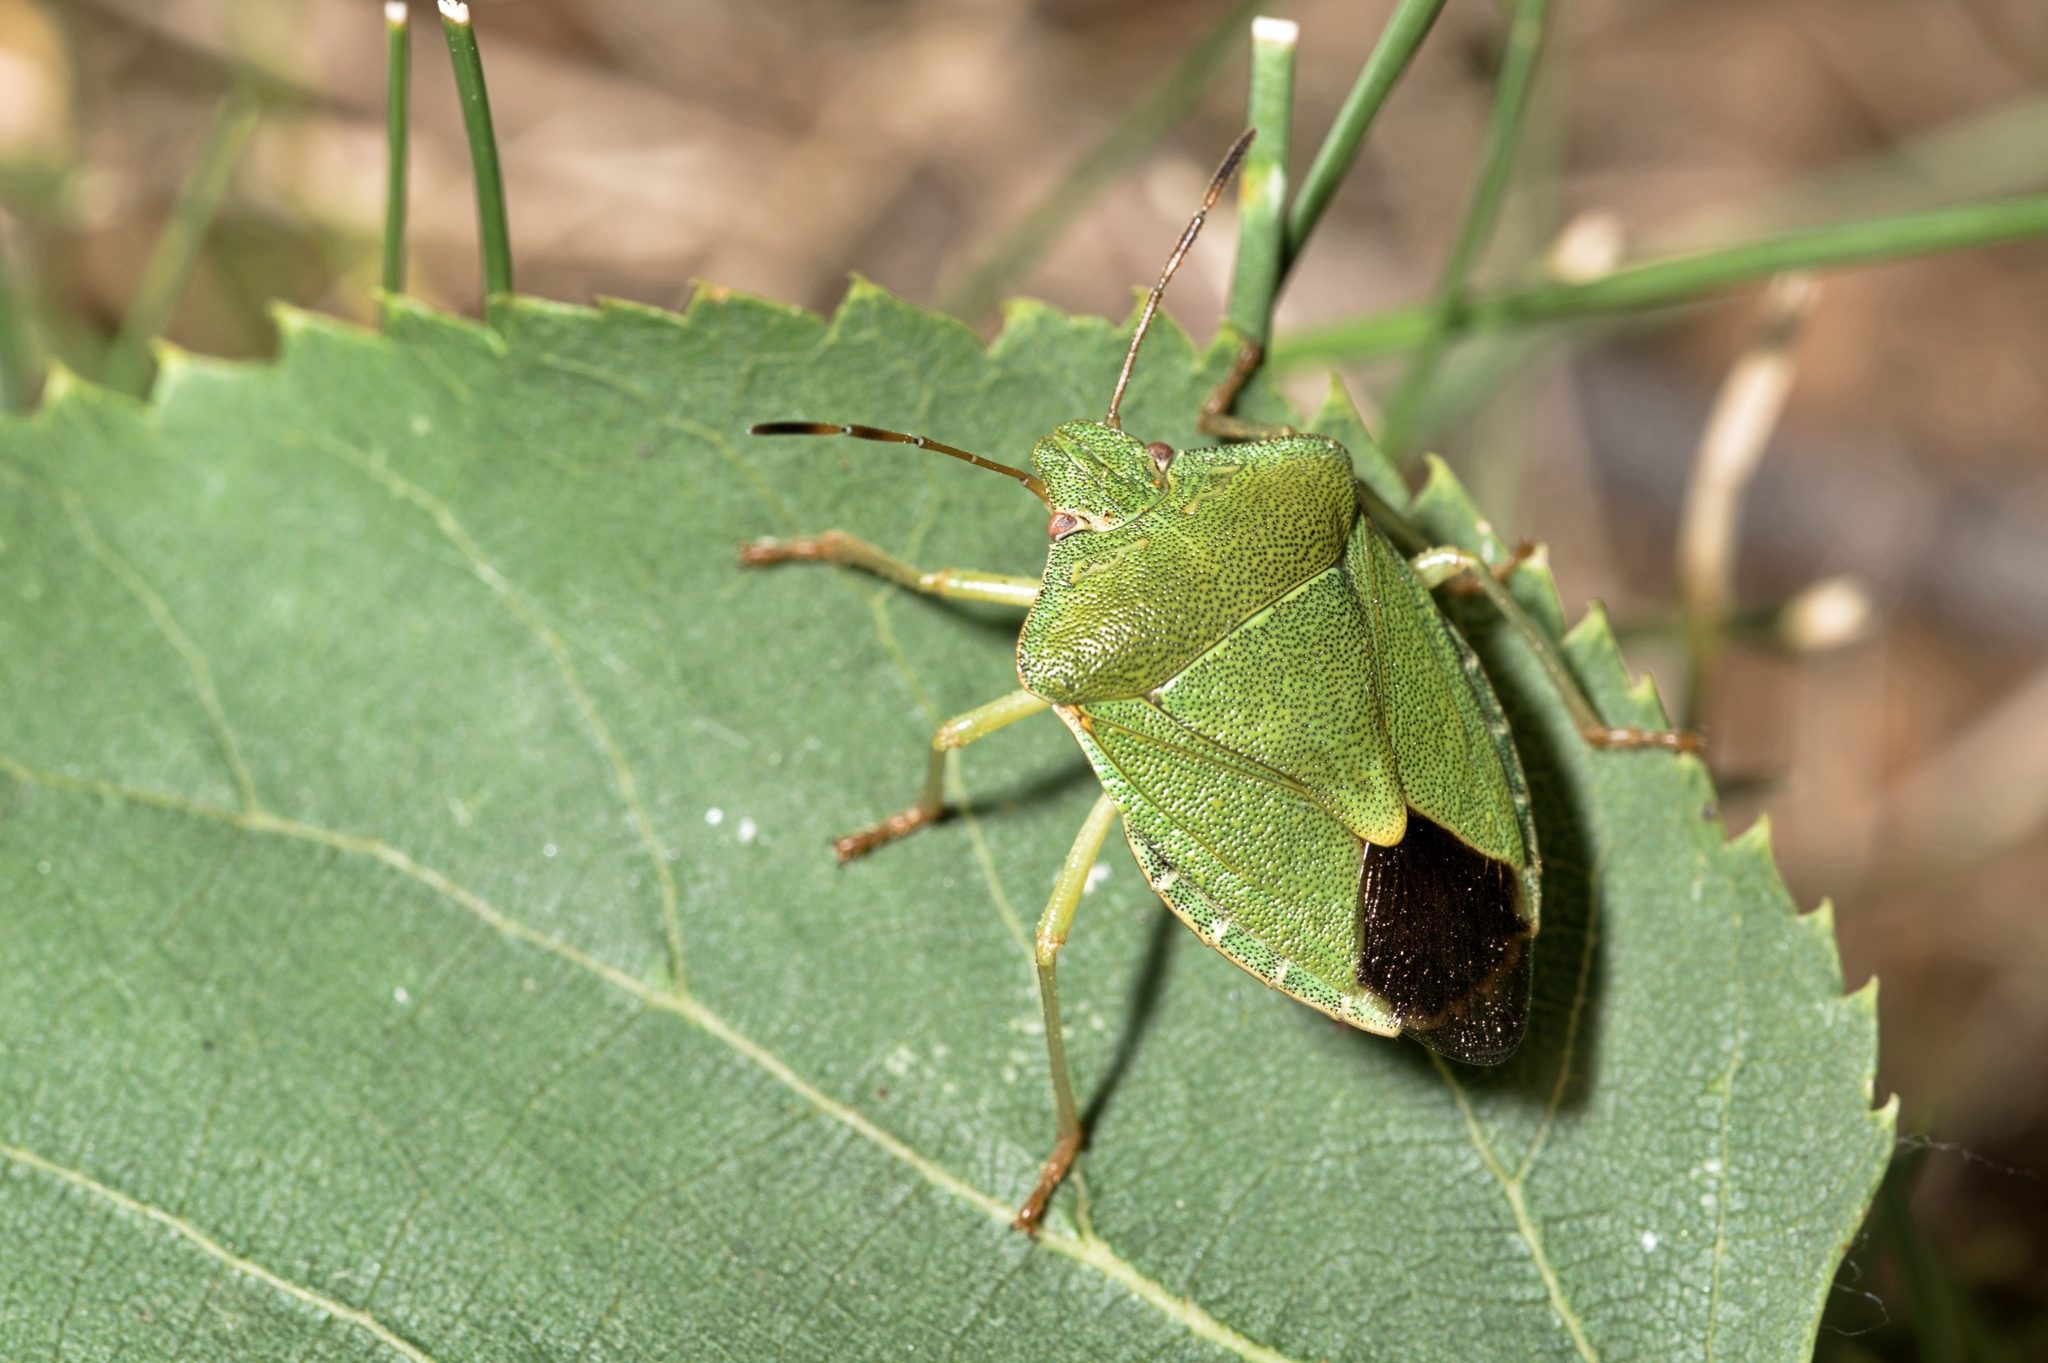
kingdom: Animalia
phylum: Arthropoda
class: Insecta
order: Hemiptera
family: Pentatomidae
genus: Palomena
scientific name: Palomena prasina
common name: Green shieldbug
